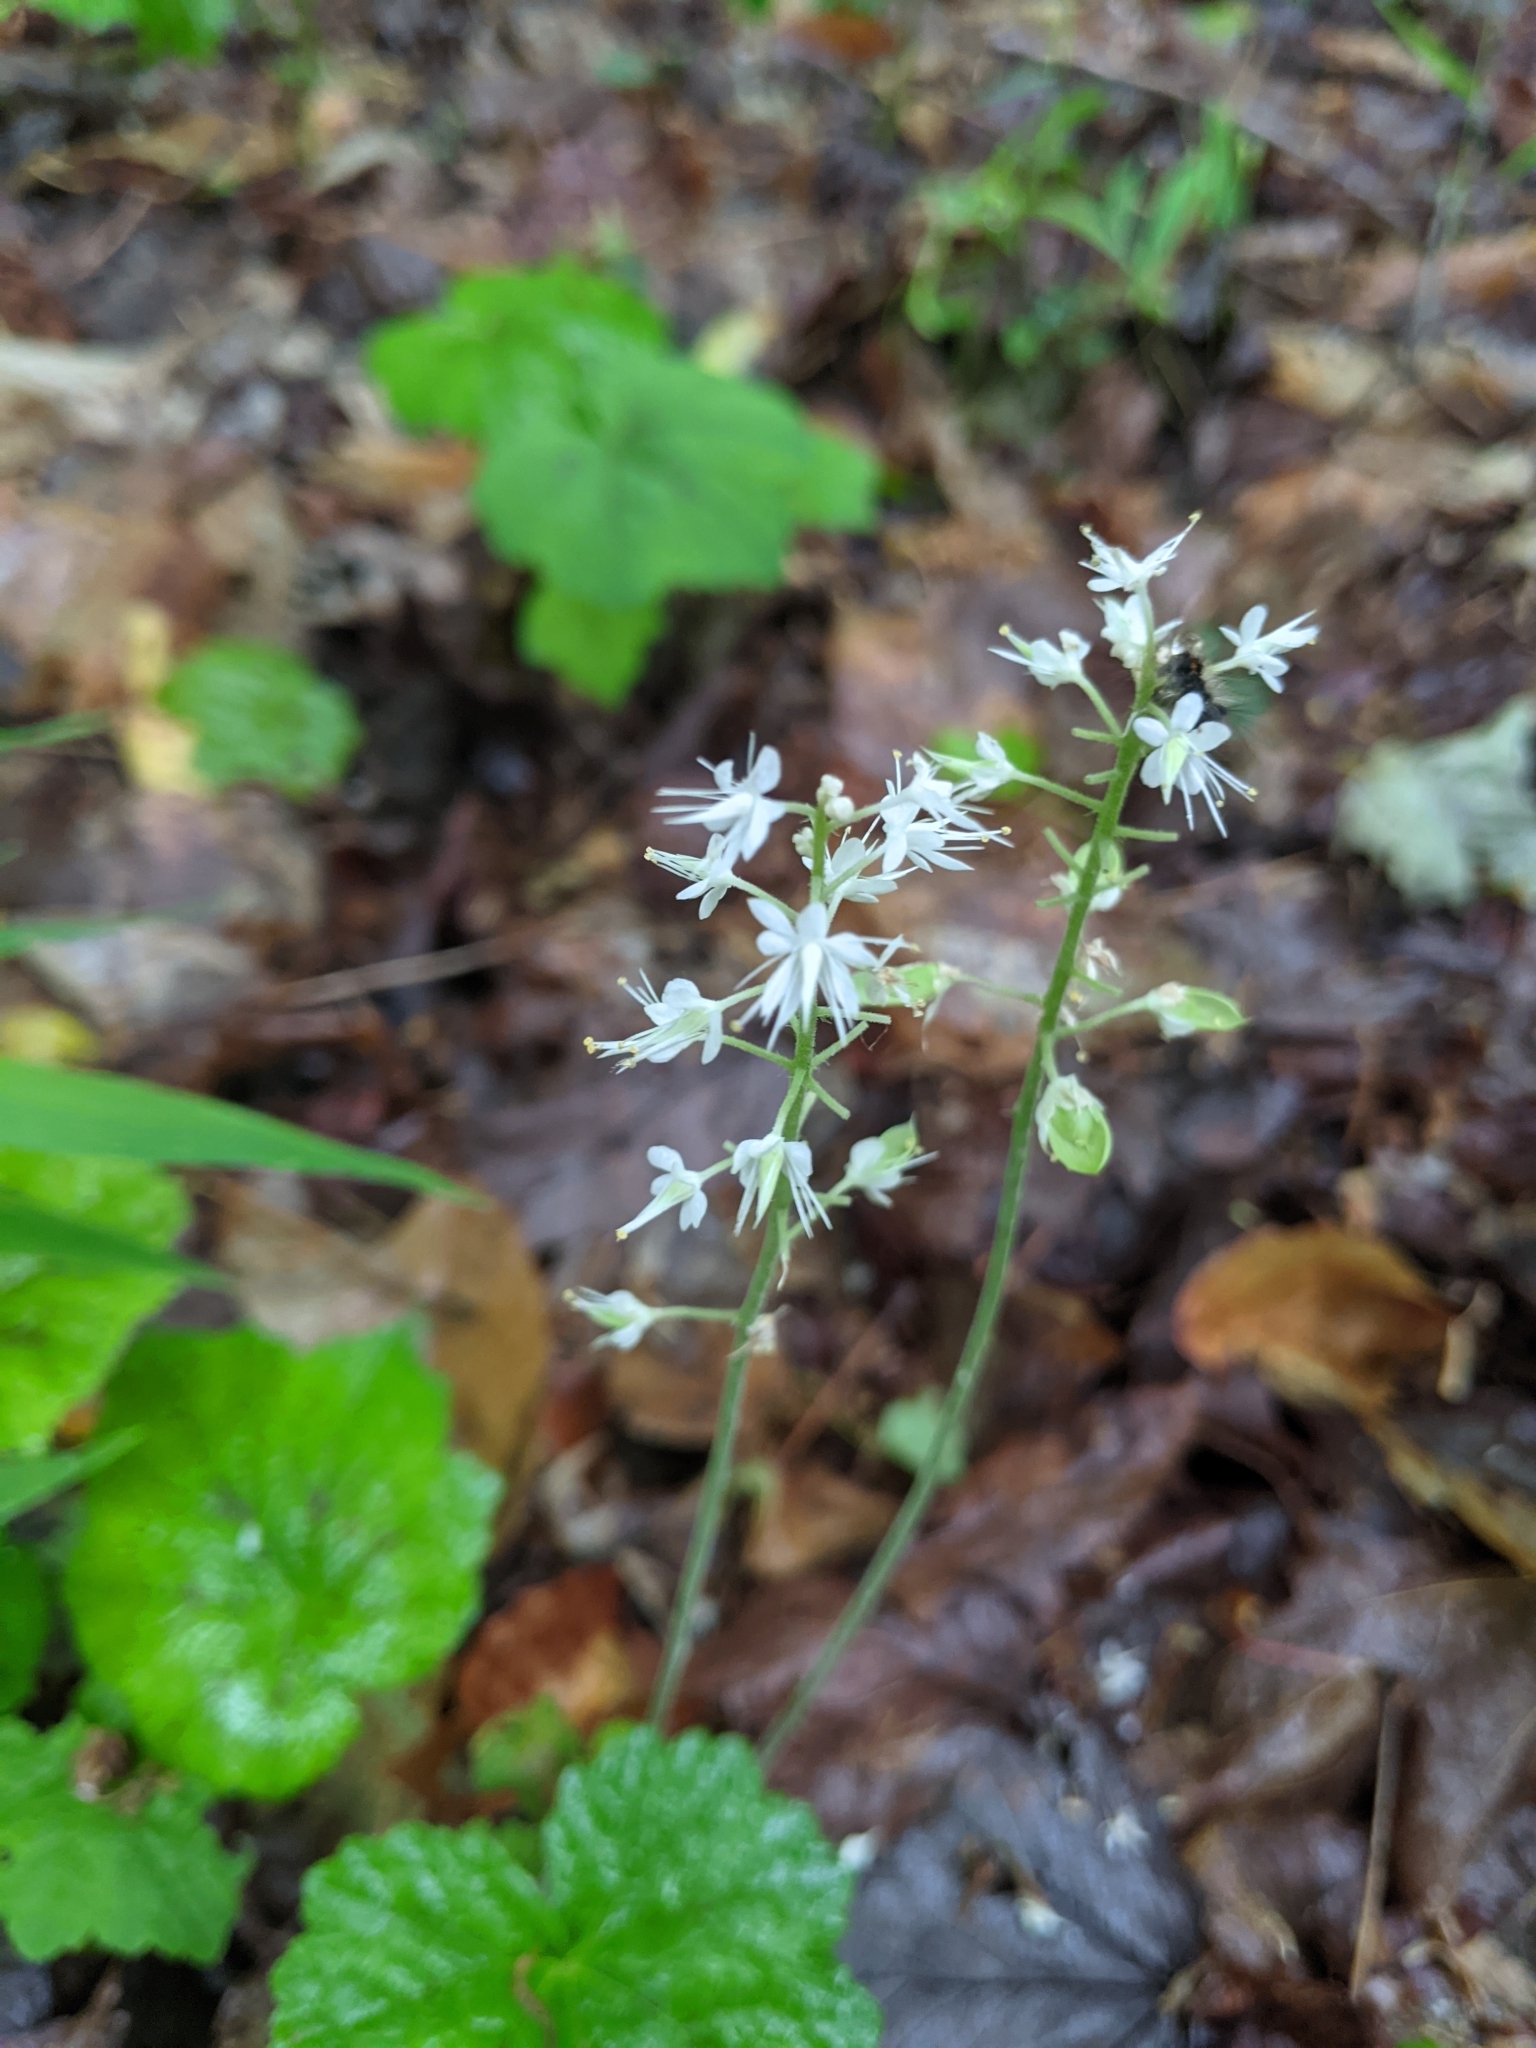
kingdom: Plantae
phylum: Tracheophyta
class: Magnoliopsida
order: Saxifragales
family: Saxifragaceae
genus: Tiarella
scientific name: Tiarella stolonifera
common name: Stoloniferous foamflower
